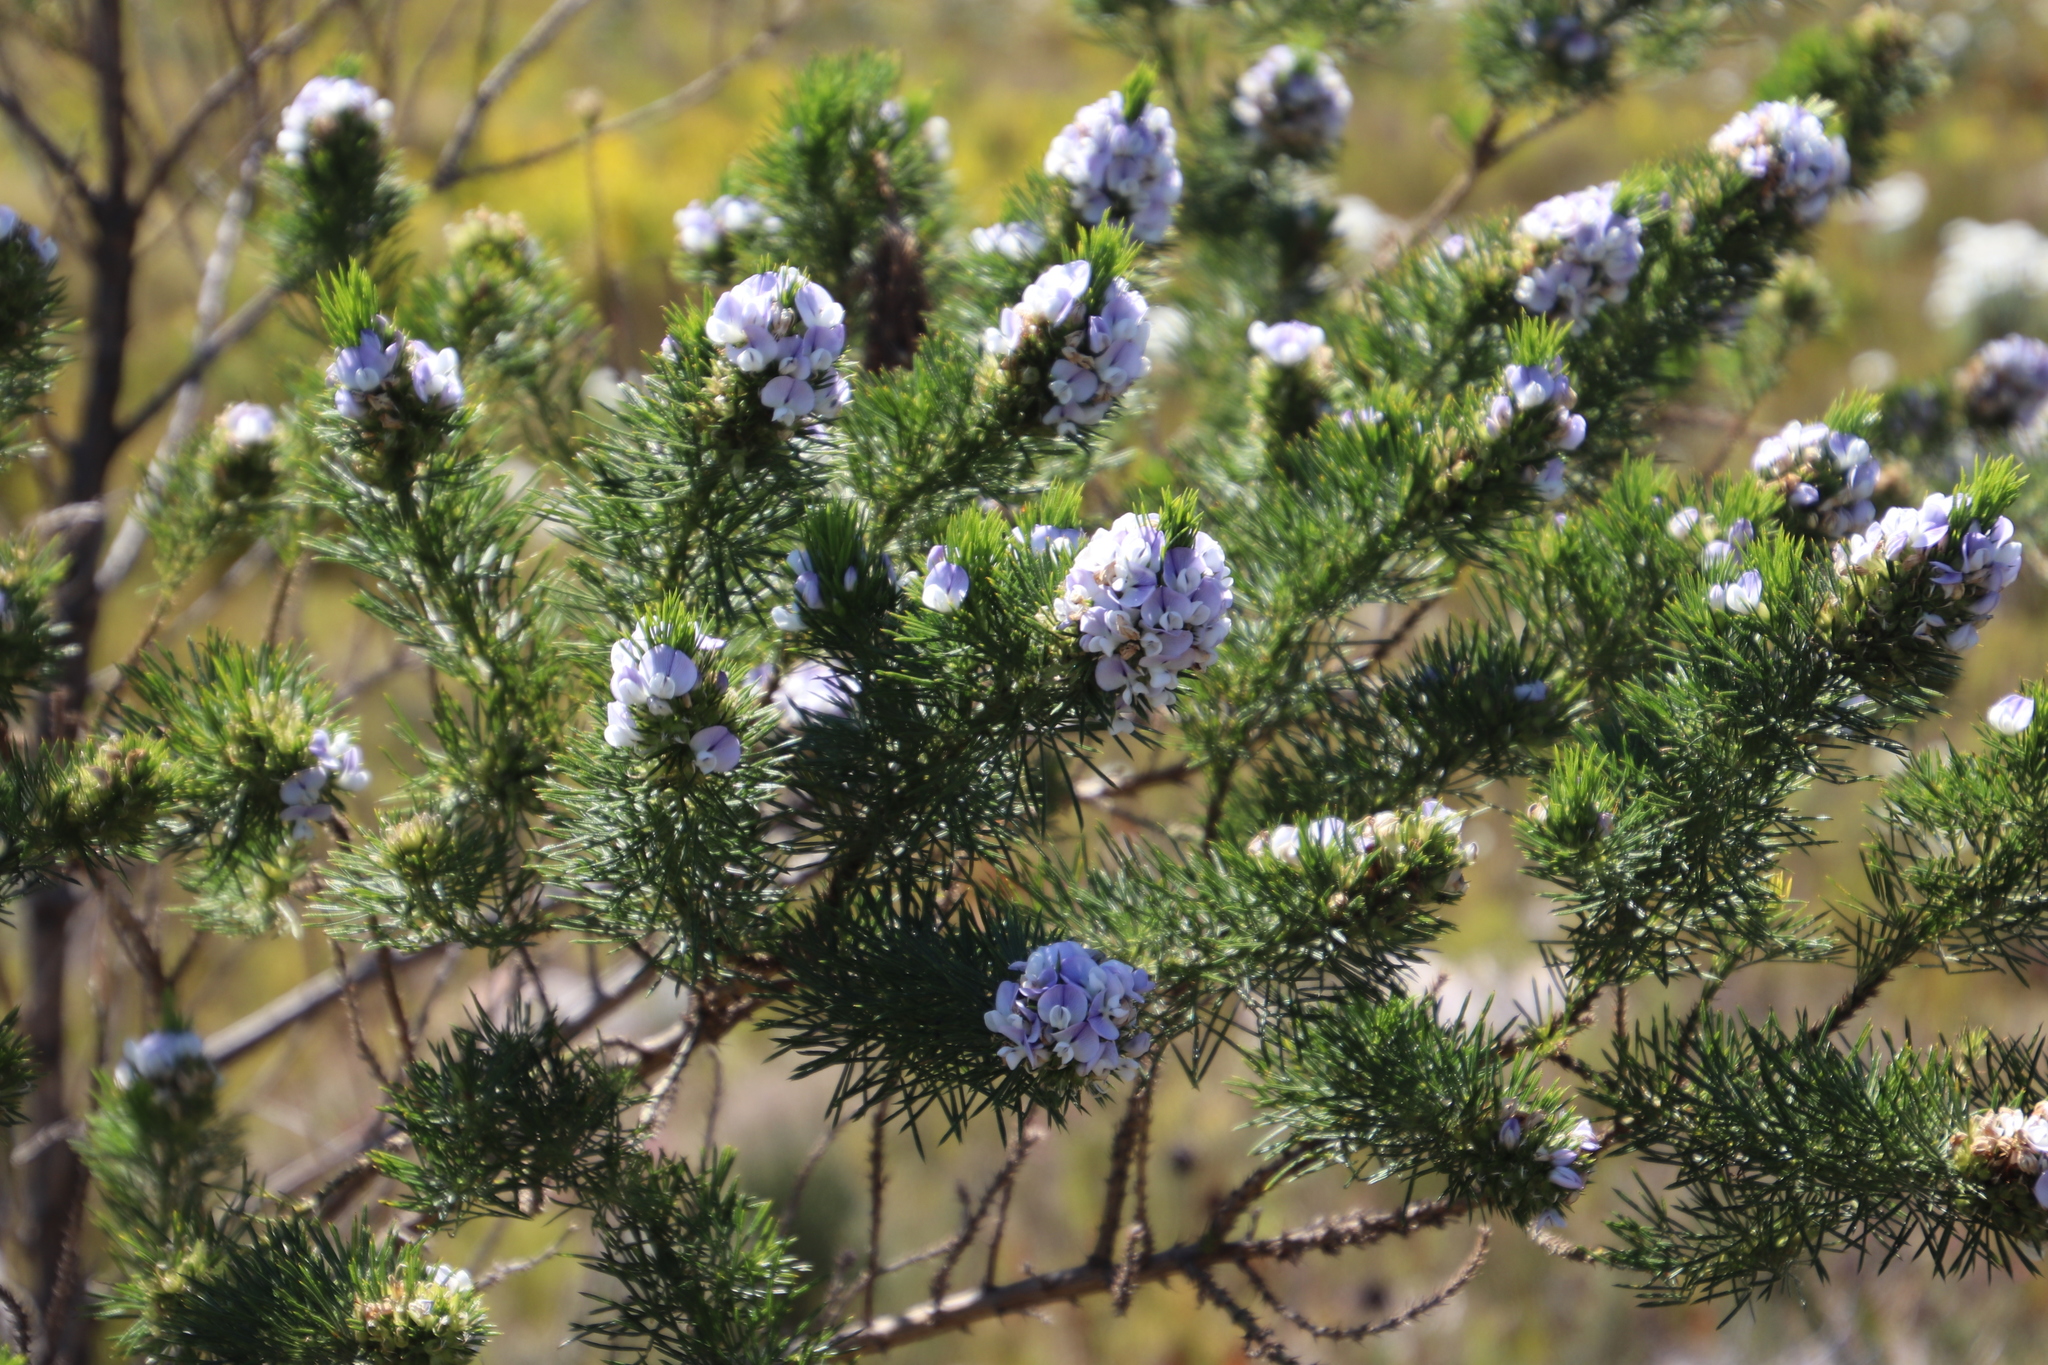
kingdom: Plantae
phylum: Tracheophyta
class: Magnoliopsida
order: Fabales
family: Fabaceae
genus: Psoralea
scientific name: Psoralea pinnata
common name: African scurfpea
